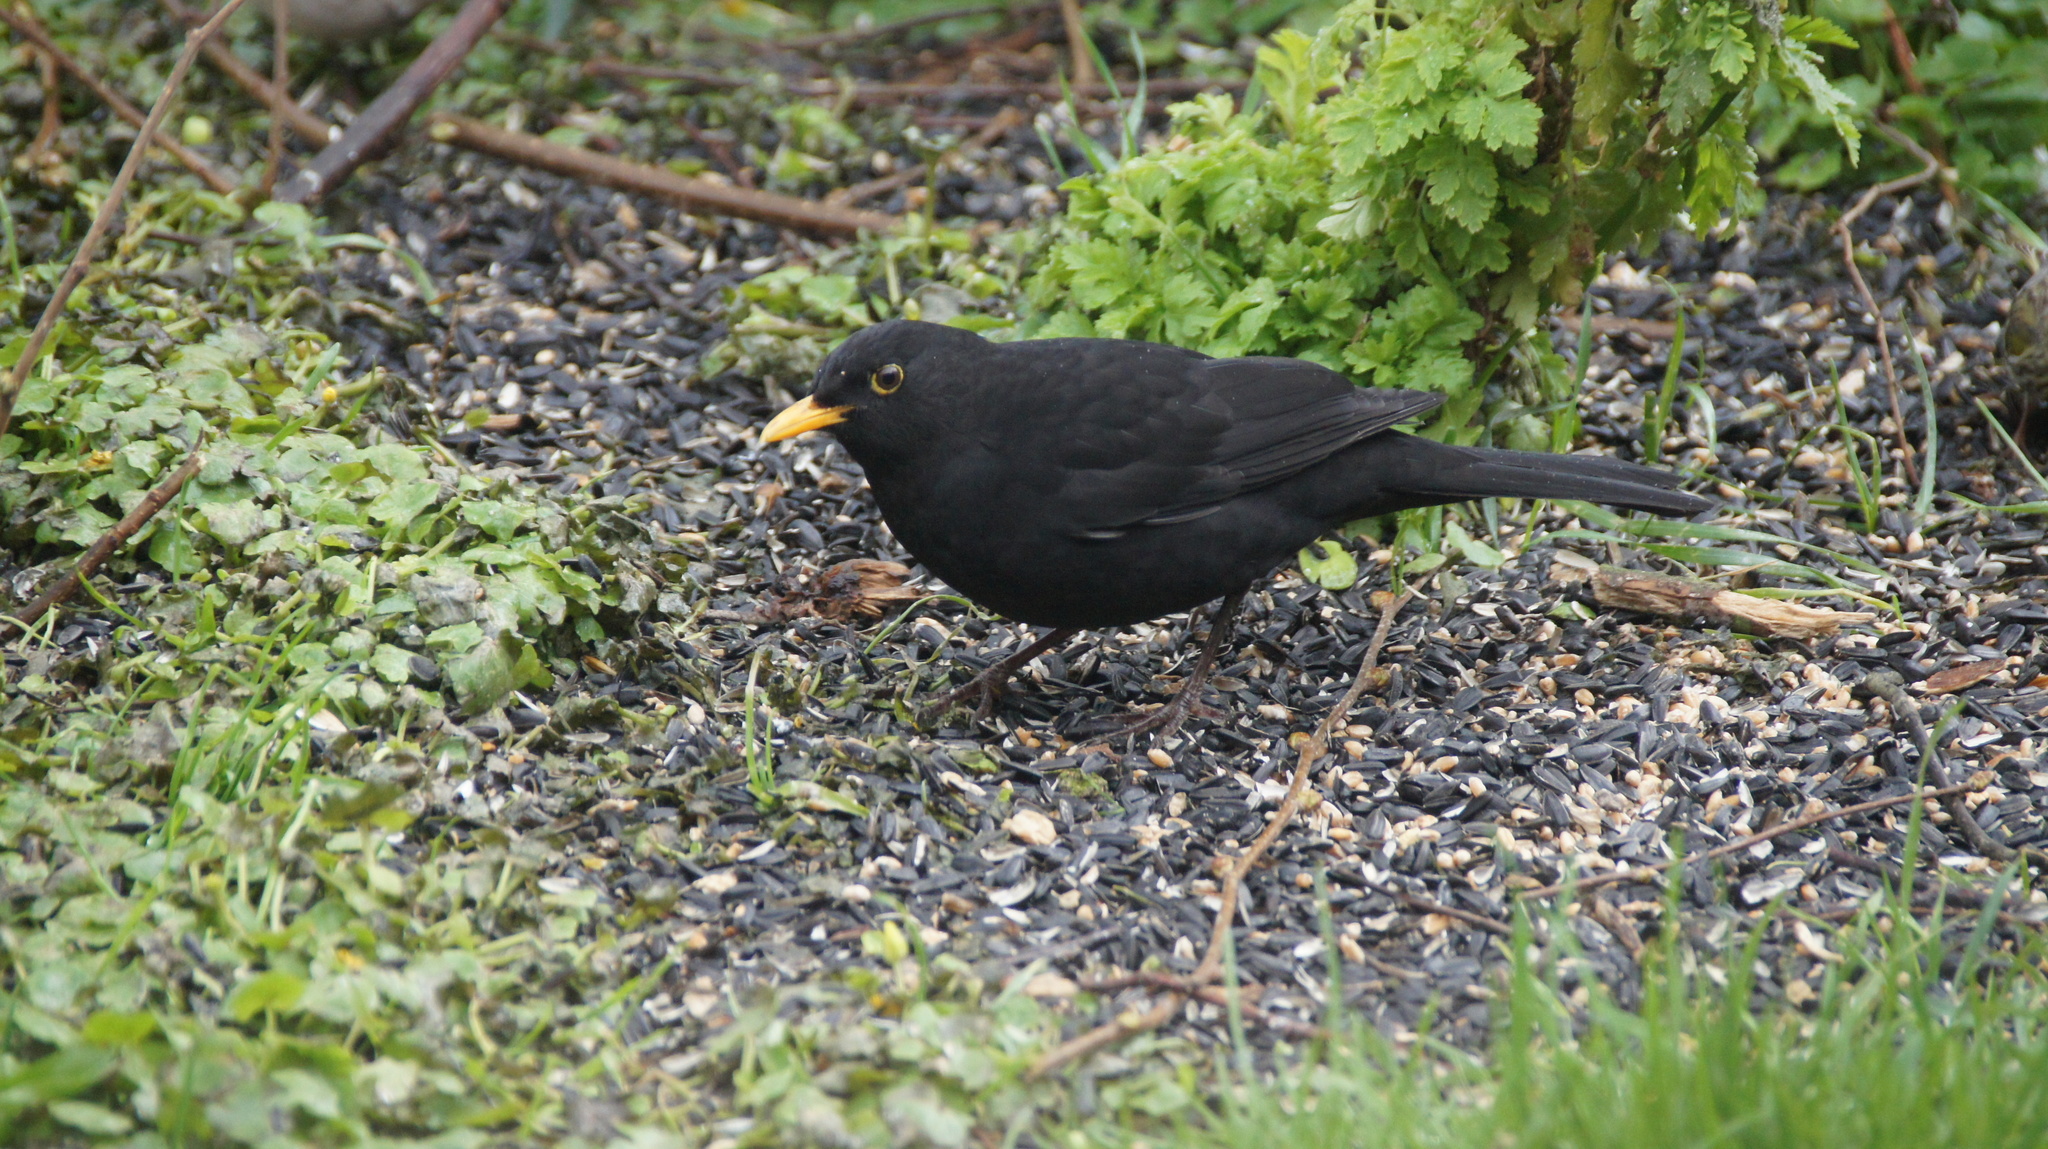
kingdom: Animalia
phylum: Chordata
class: Aves
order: Passeriformes
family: Turdidae
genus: Turdus
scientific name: Turdus merula
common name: Common blackbird
